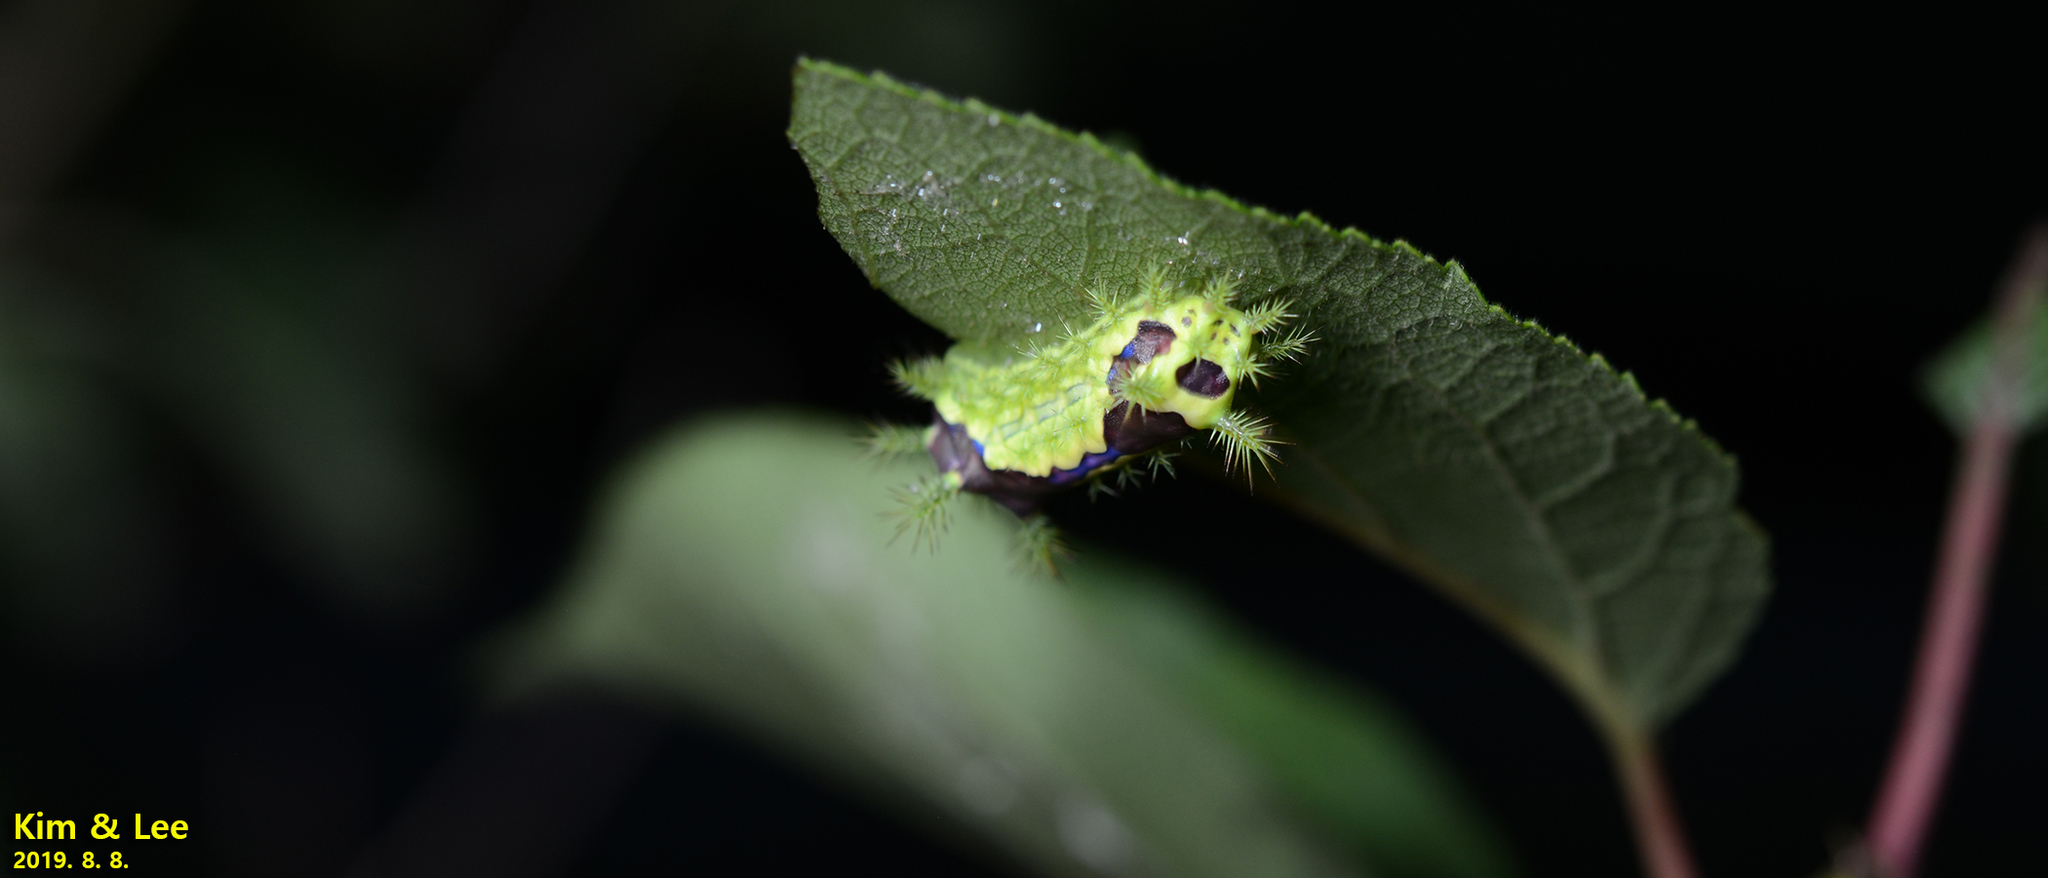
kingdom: Animalia
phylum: Arthropoda
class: Insecta
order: Lepidoptera
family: Limacodidae
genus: Monema
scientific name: Monema flavescens
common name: Oriental moth
